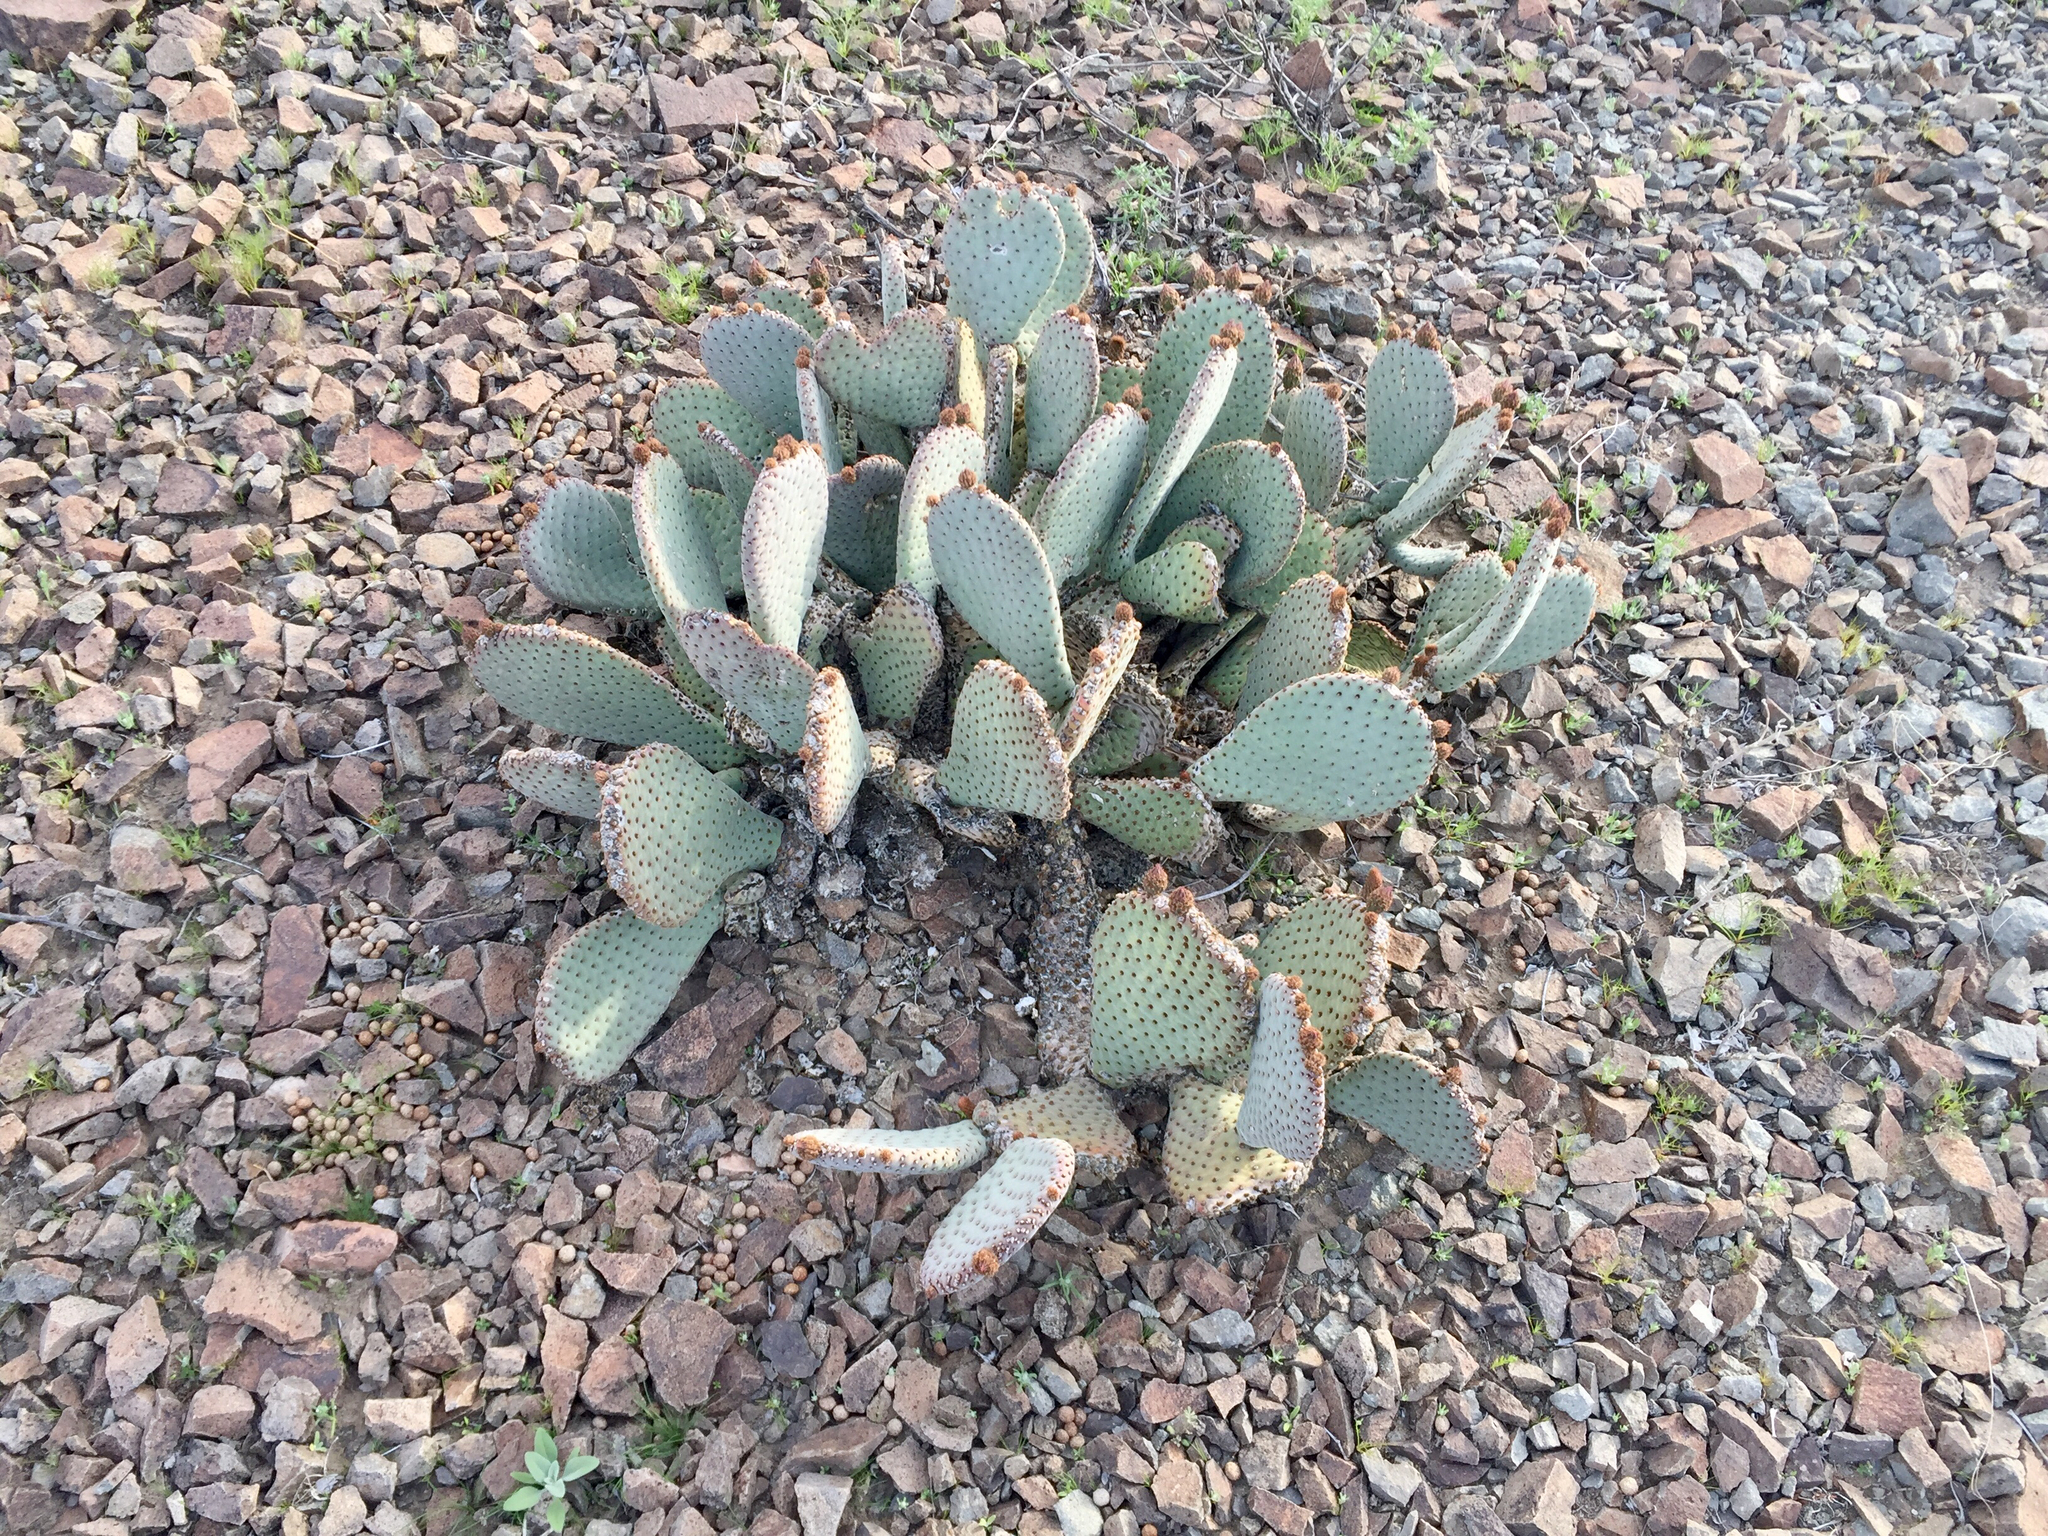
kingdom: Plantae
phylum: Tracheophyta
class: Magnoliopsida
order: Caryophyllales
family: Cactaceae
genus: Opuntia
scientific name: Opuntia basilaris
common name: Beavertail prickly-pear
